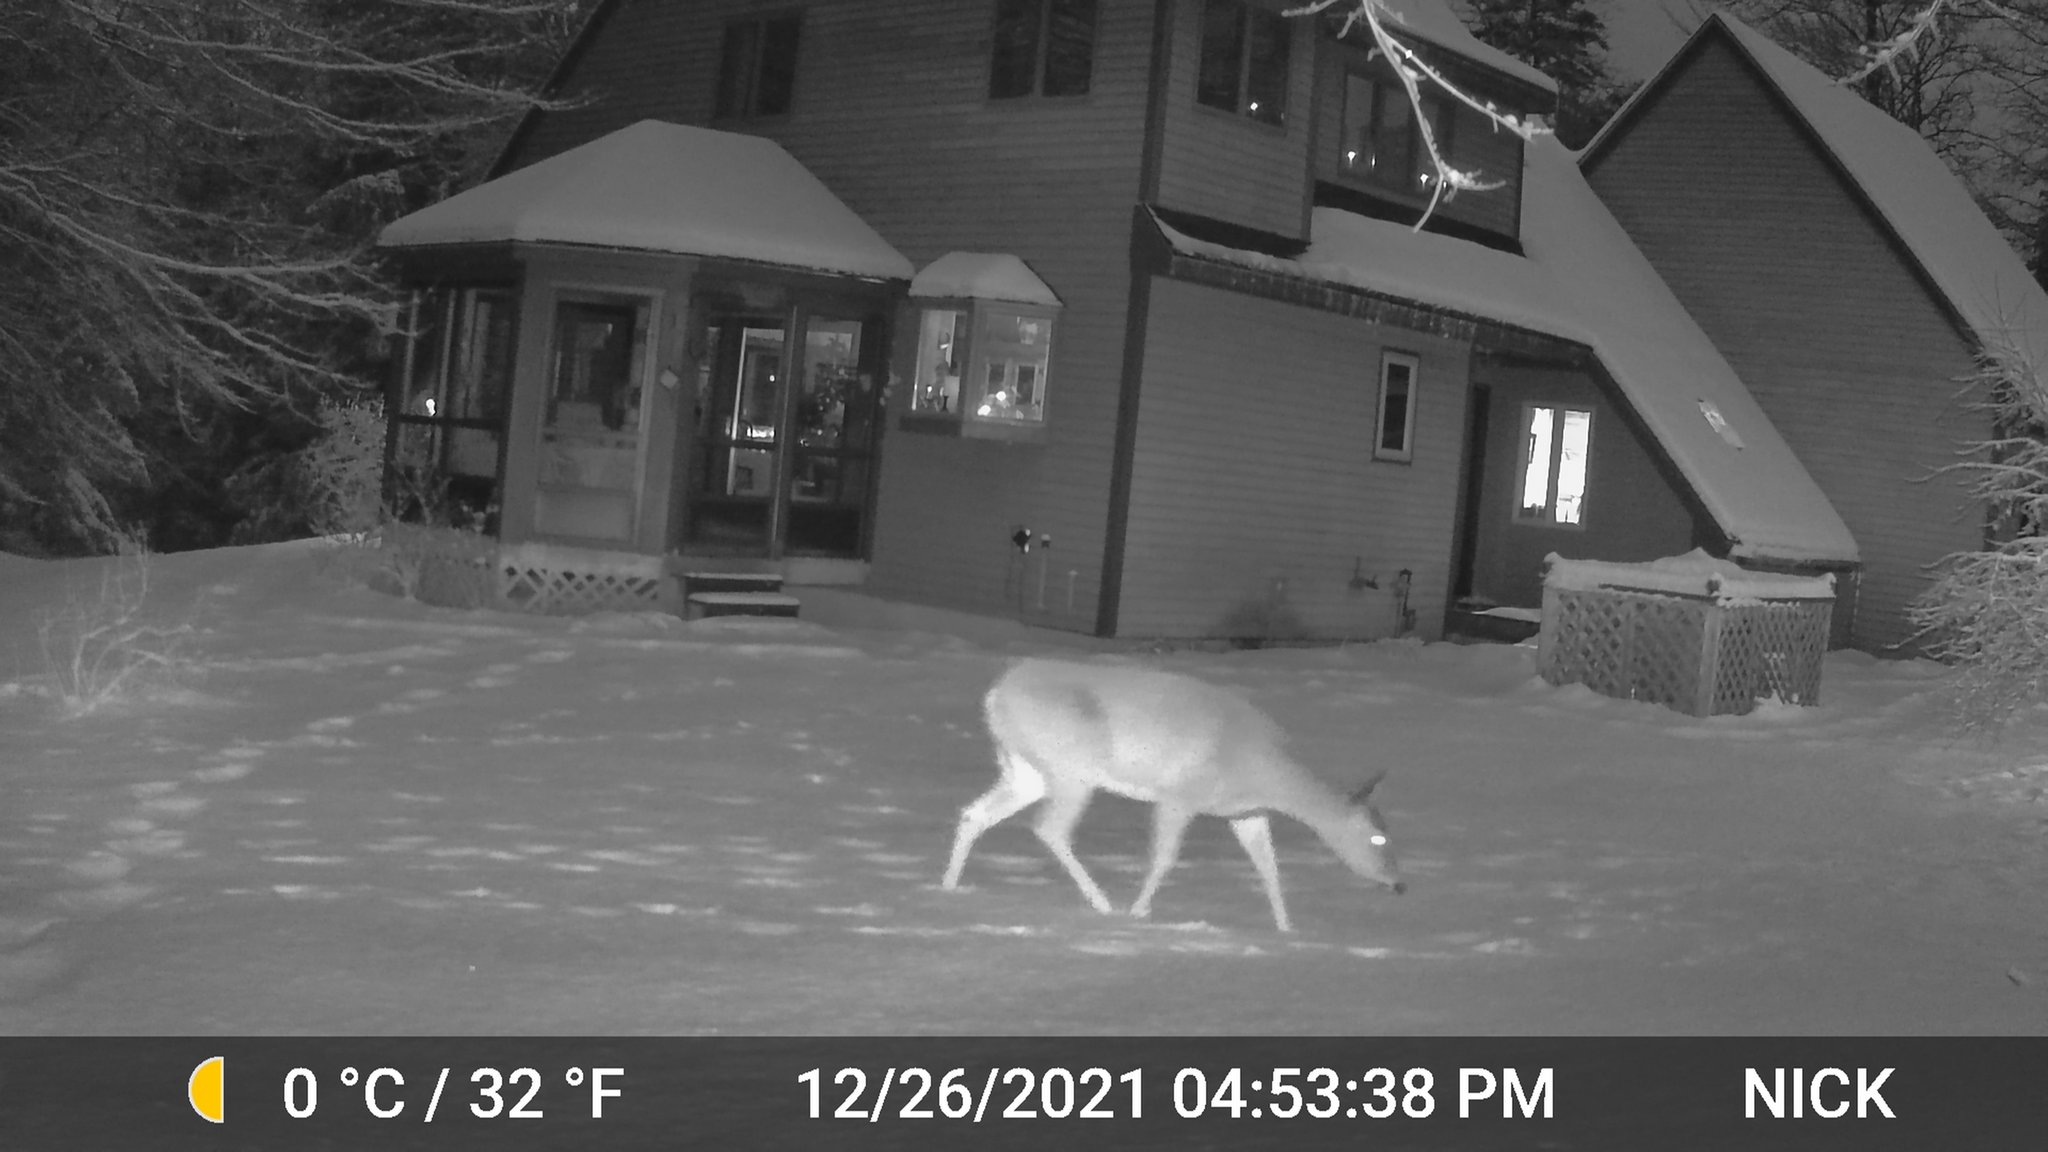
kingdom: Animalia
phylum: Chordata
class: Mammalia
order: Artiodactyla
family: Cervidae
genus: Odocoileus
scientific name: Odocoileus virginianus
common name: White-tailed deer
